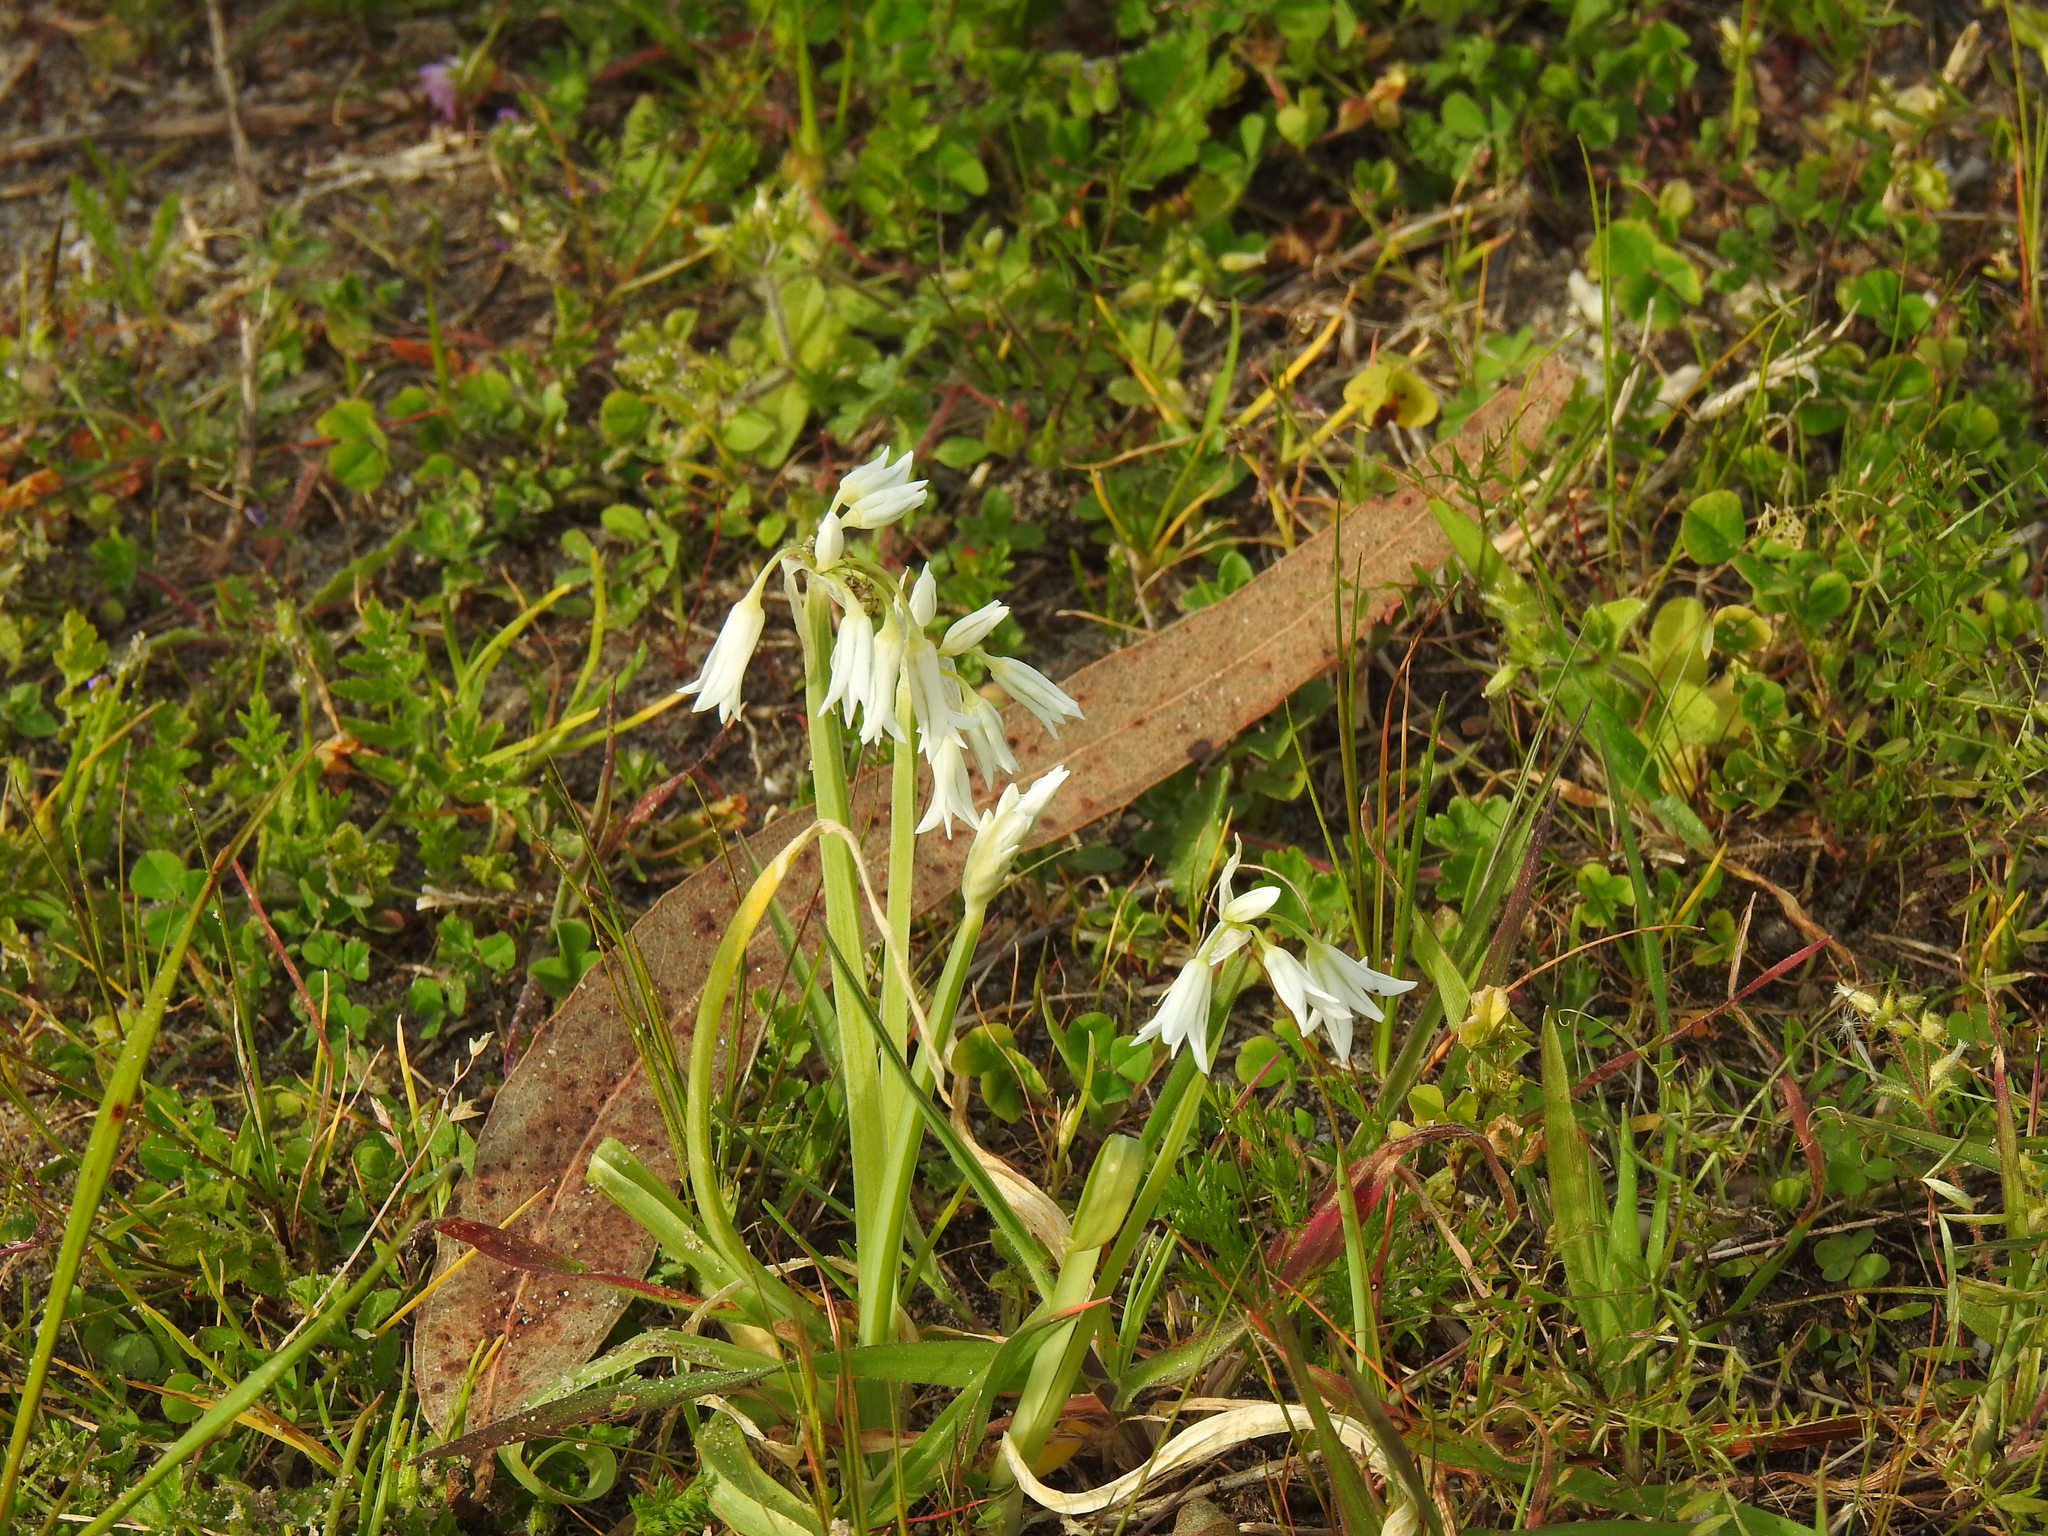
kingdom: Plantae
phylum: Tracheophyta
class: Liliopsida
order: Asparagales
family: Amaryllidaceae
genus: Allium
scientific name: Allium triquetrum
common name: Three-cornered garlic
